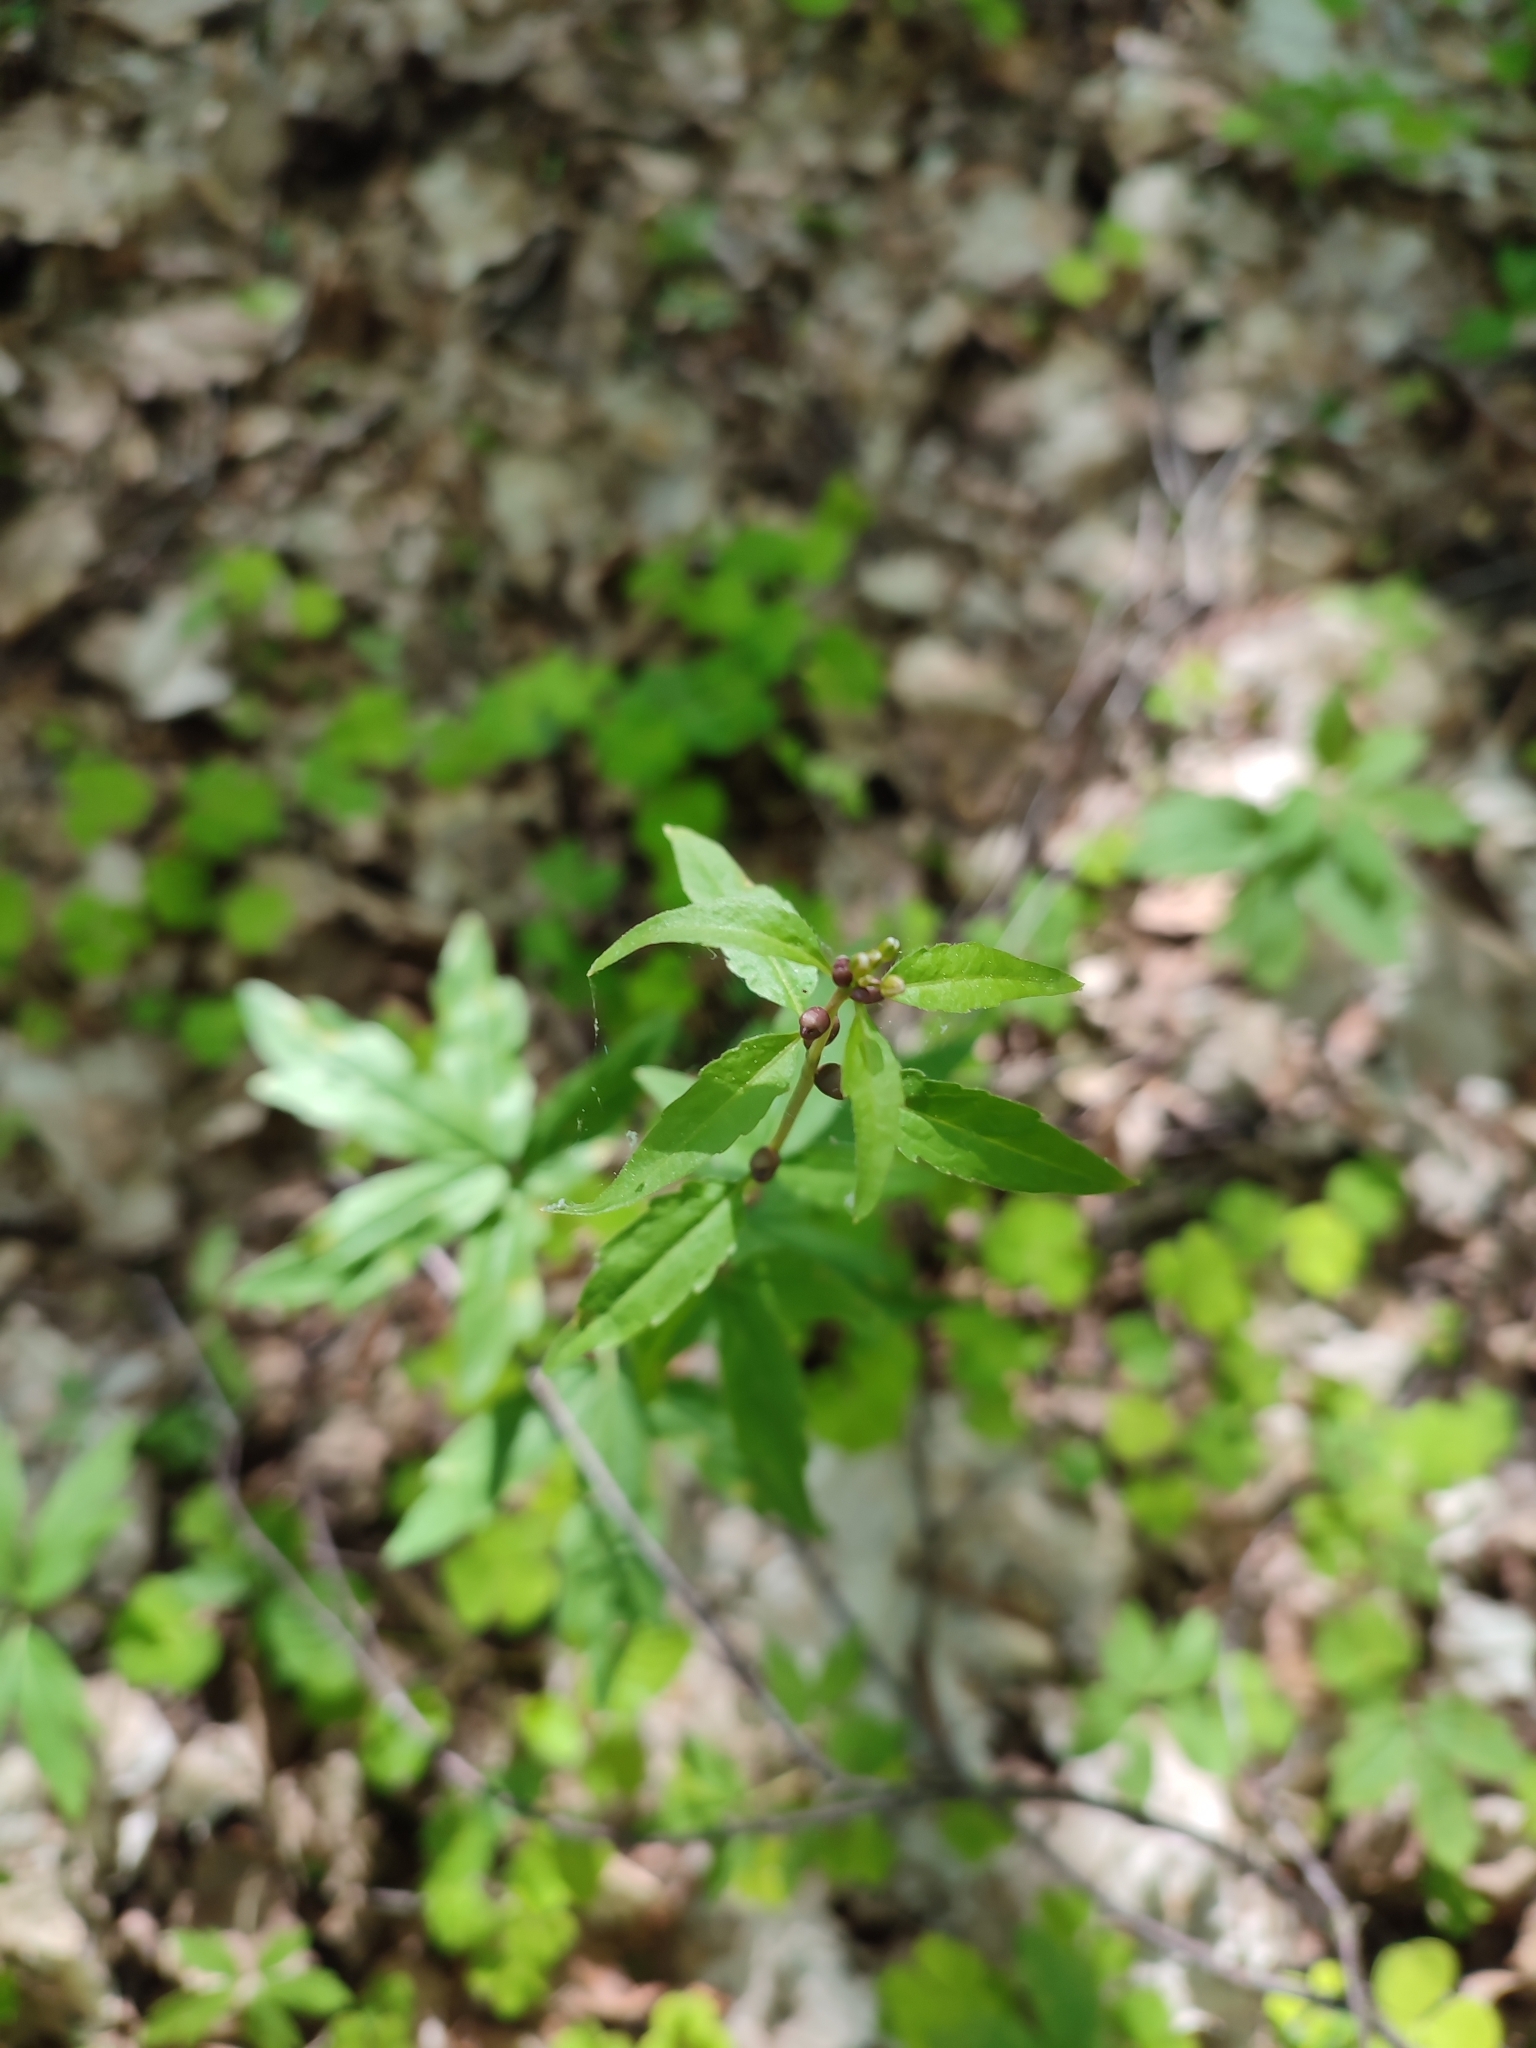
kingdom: Plantae
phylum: Tracheophyta
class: Magnoliopsida
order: Brassicales
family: Brassicaceae
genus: Cardamine
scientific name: Cardamine bulbifera
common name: Coralroot bittercress
